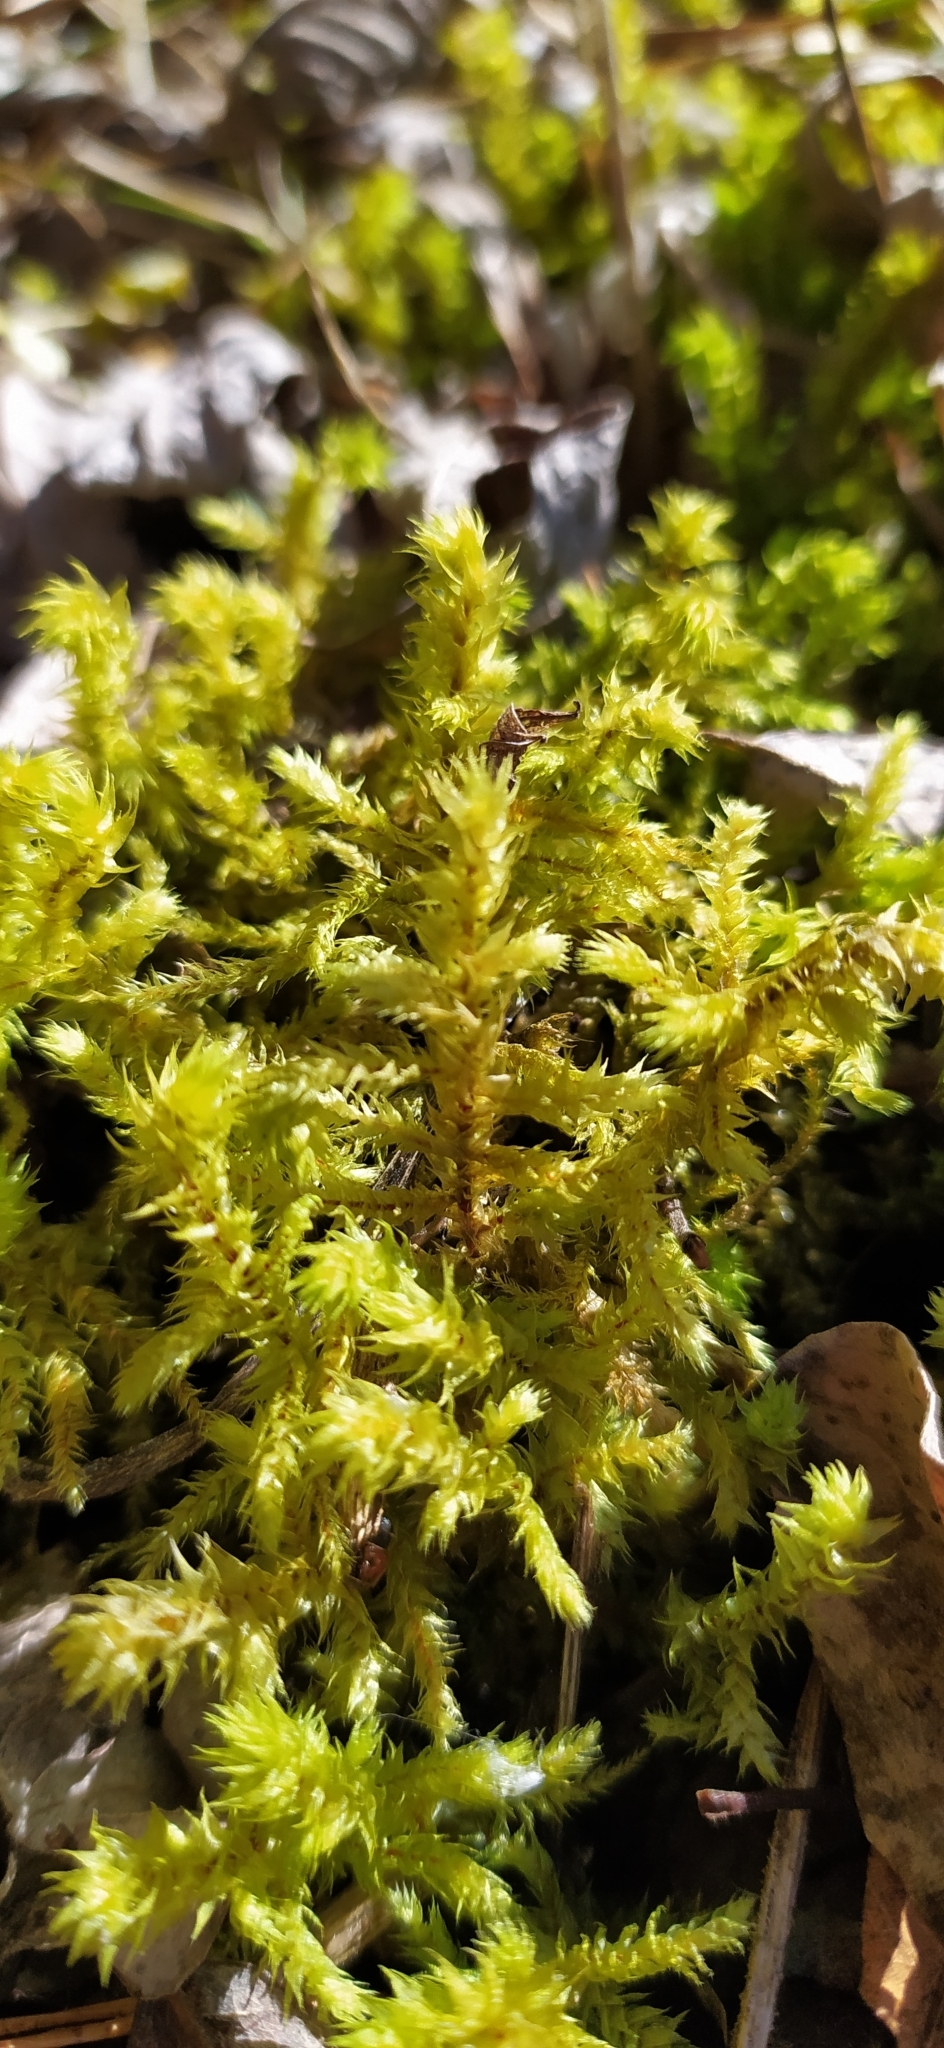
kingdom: Plantae
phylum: Bryophyta
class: Bryopsida
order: Hypnales
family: Hylocomiaceae
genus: Hylocomiadelphus
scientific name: Hylocomiadelphus triquetrus
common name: Rough goose neck moss
